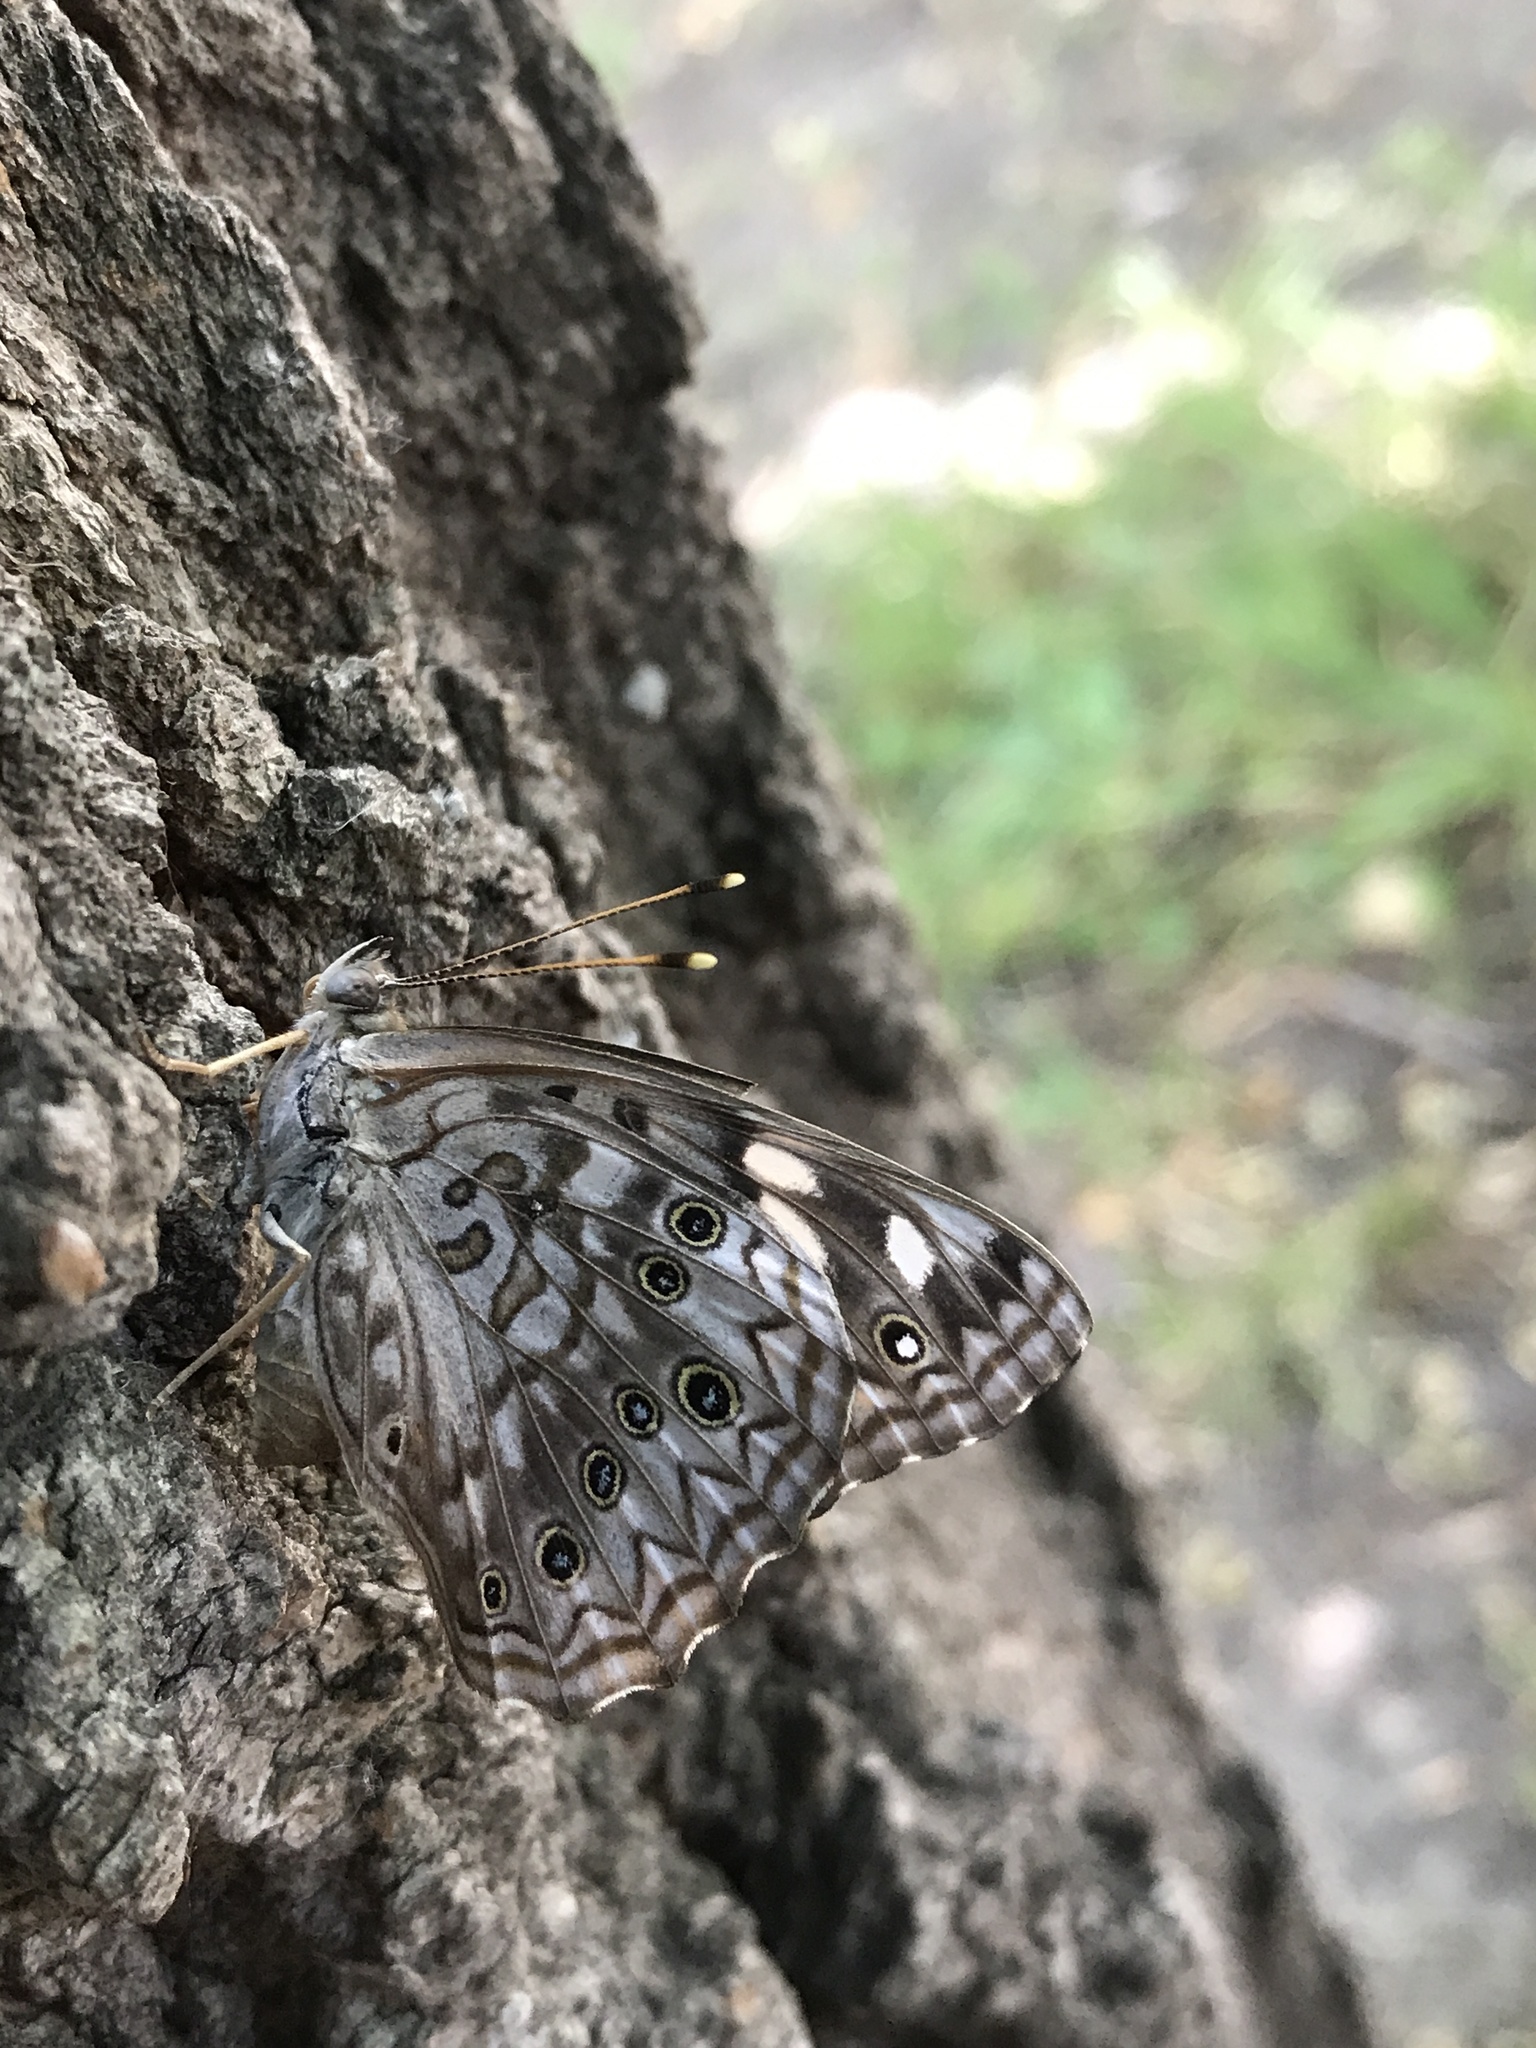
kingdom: Animalia
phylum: Arthropoda
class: Insecta
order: Lepidoptera
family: Nymphalidae
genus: Asterocampa
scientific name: Asterocampa celtis
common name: Hackberry emperor
